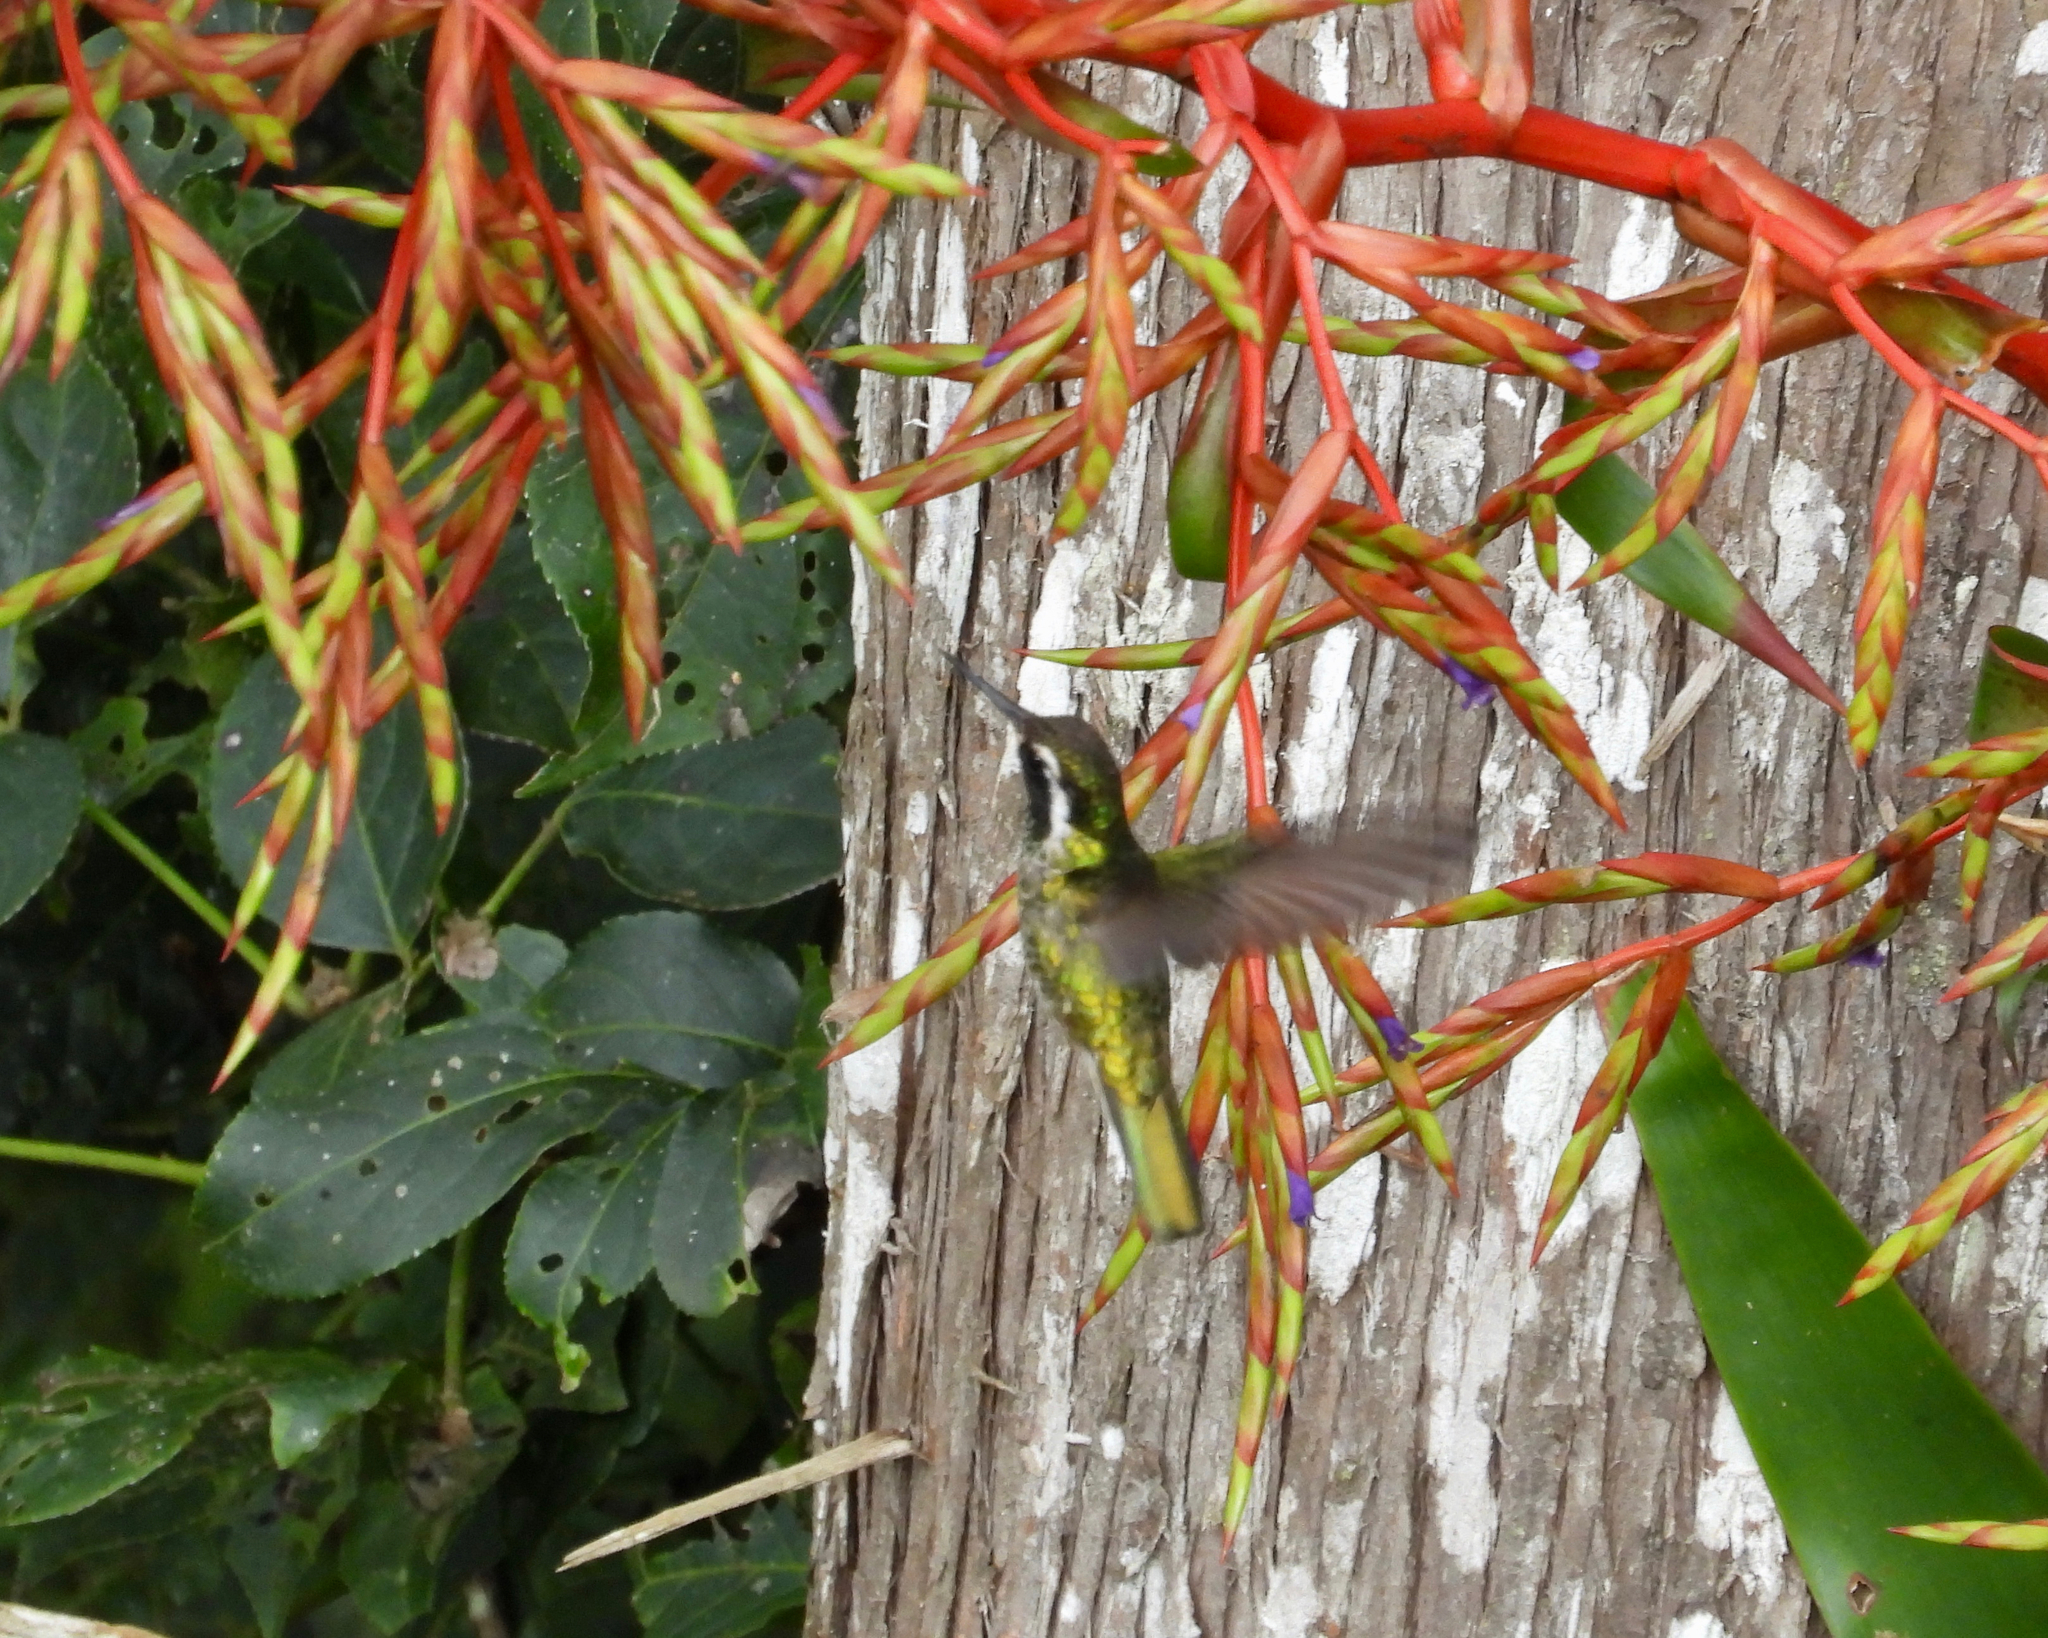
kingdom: Animalia
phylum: Chordata
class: Aves
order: Apodiformes
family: Trochilidae
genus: Basilinna
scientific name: Basilinna leucotis
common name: White-eared hummingbird
